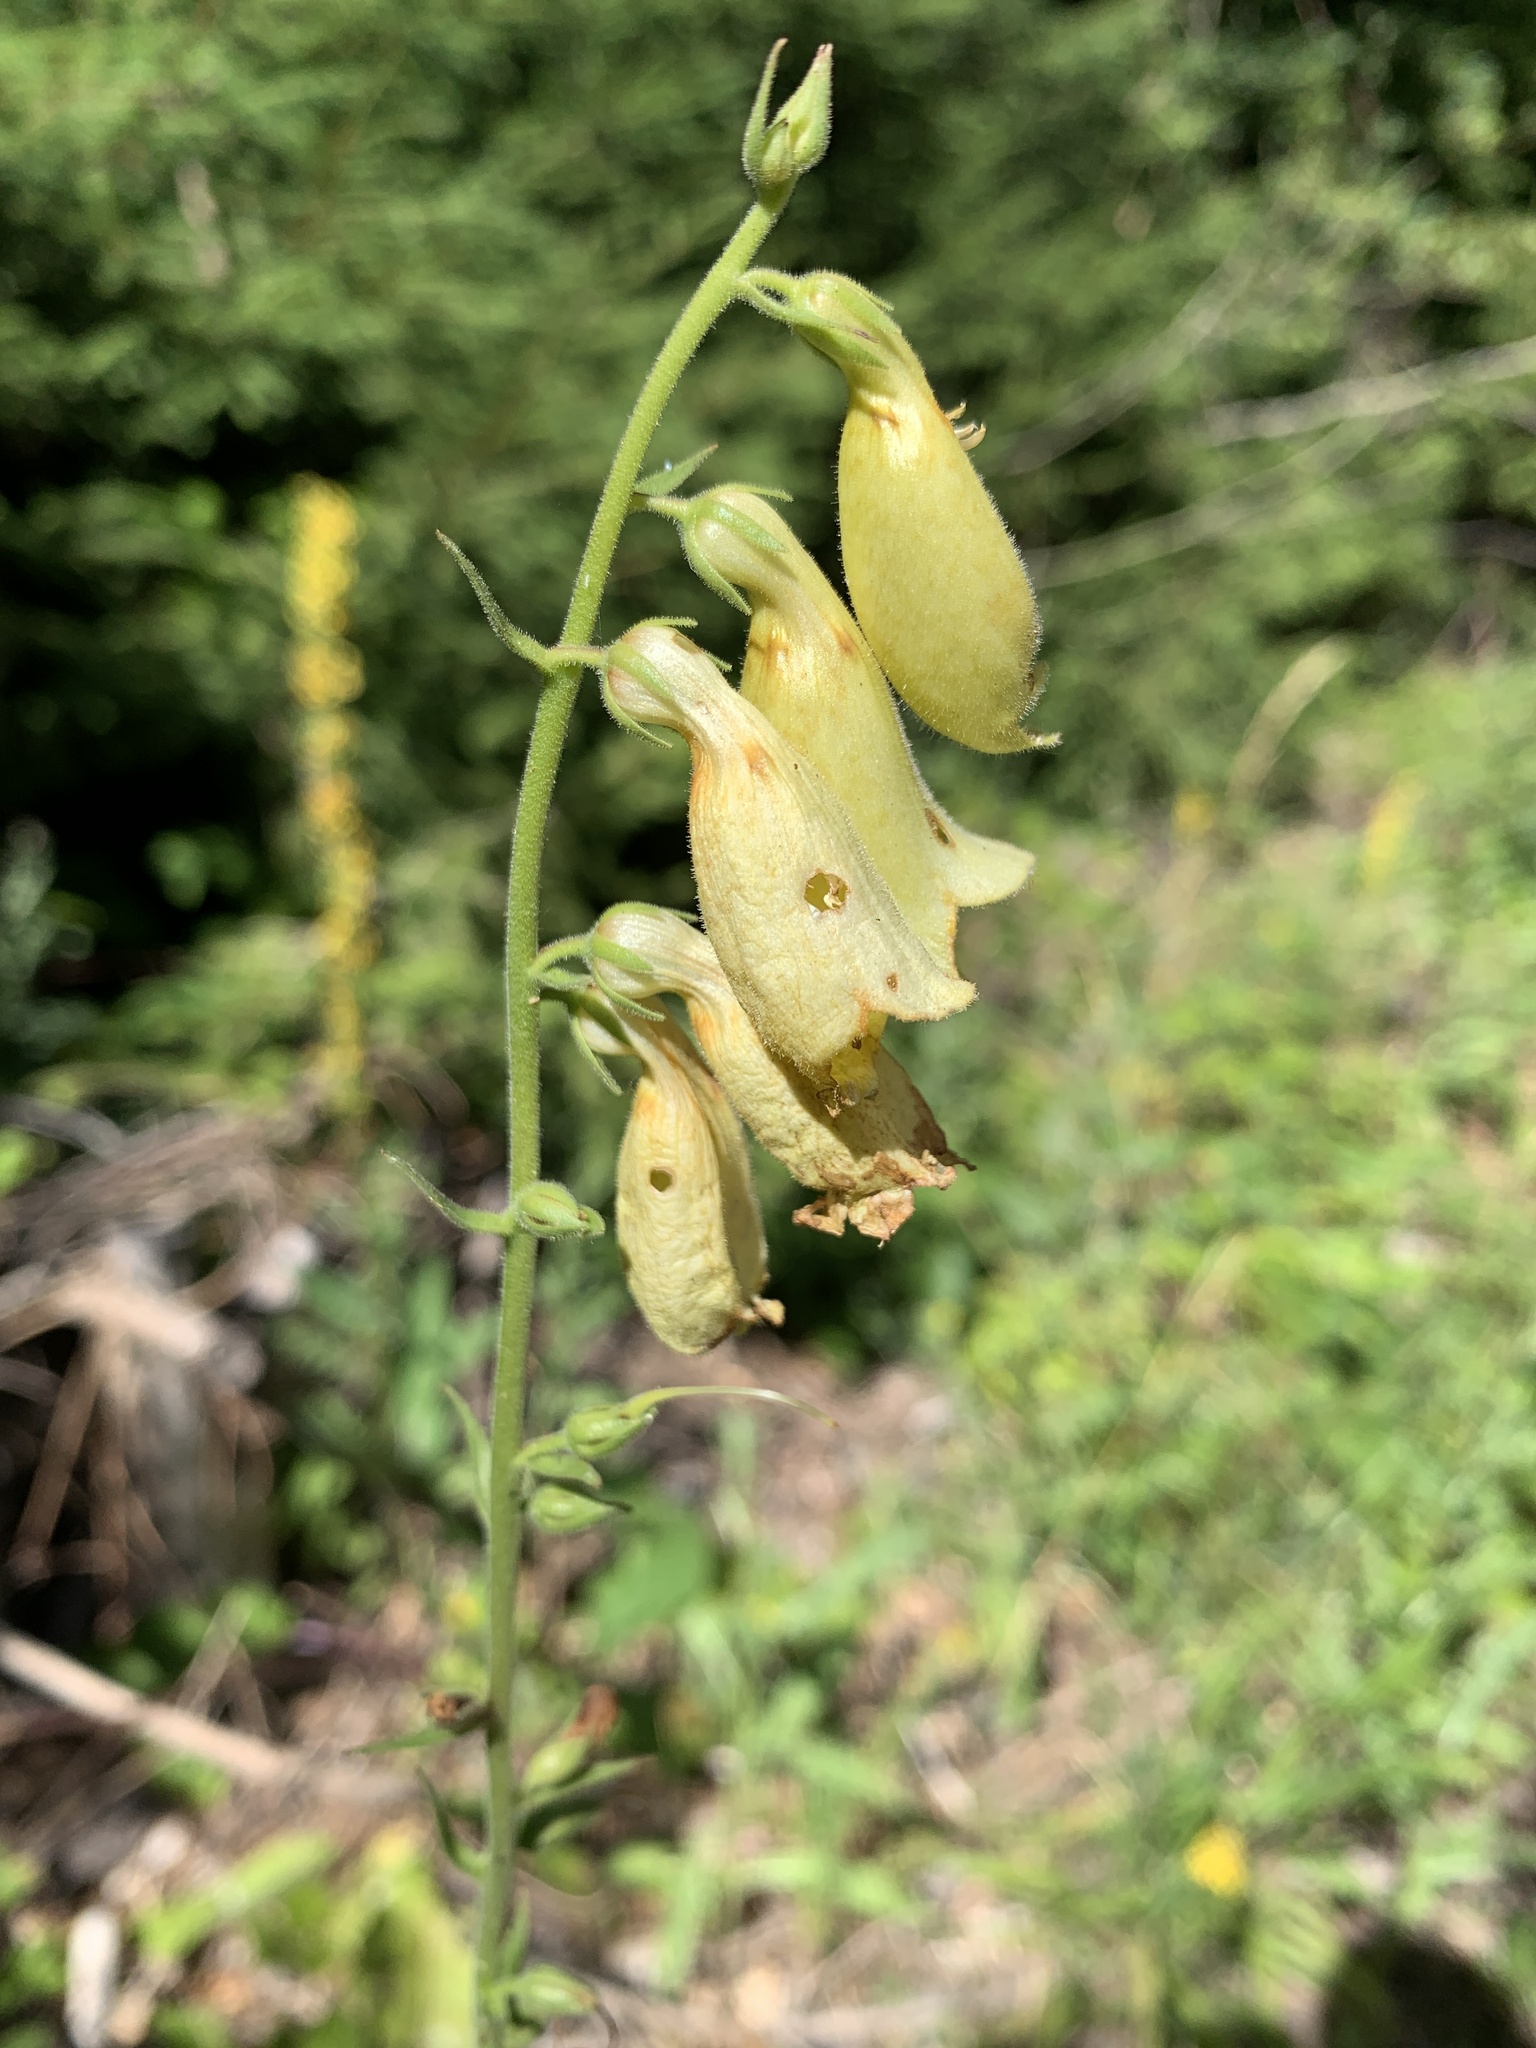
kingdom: Plantae
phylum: Tracheophyta
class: Magnoliopsida
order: Lamiales
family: Plantaginaceae
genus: Digitalis
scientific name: Digitalis grandiflora
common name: Yellow foxglove
